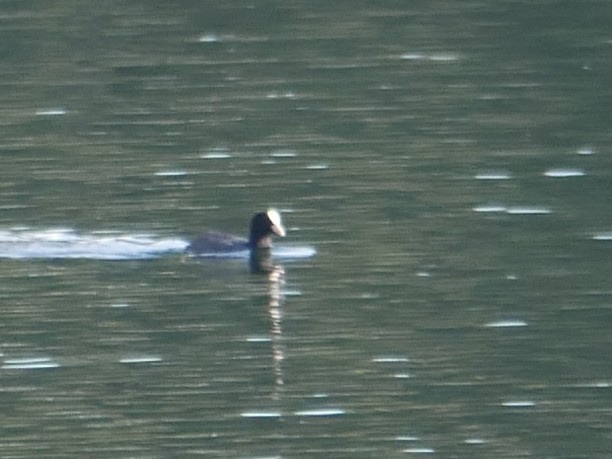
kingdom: Animalia
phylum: Chordata
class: Aves
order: Gruiformes
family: Rallidae
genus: Fulica
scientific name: Fulica atra
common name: Eurasian coot
